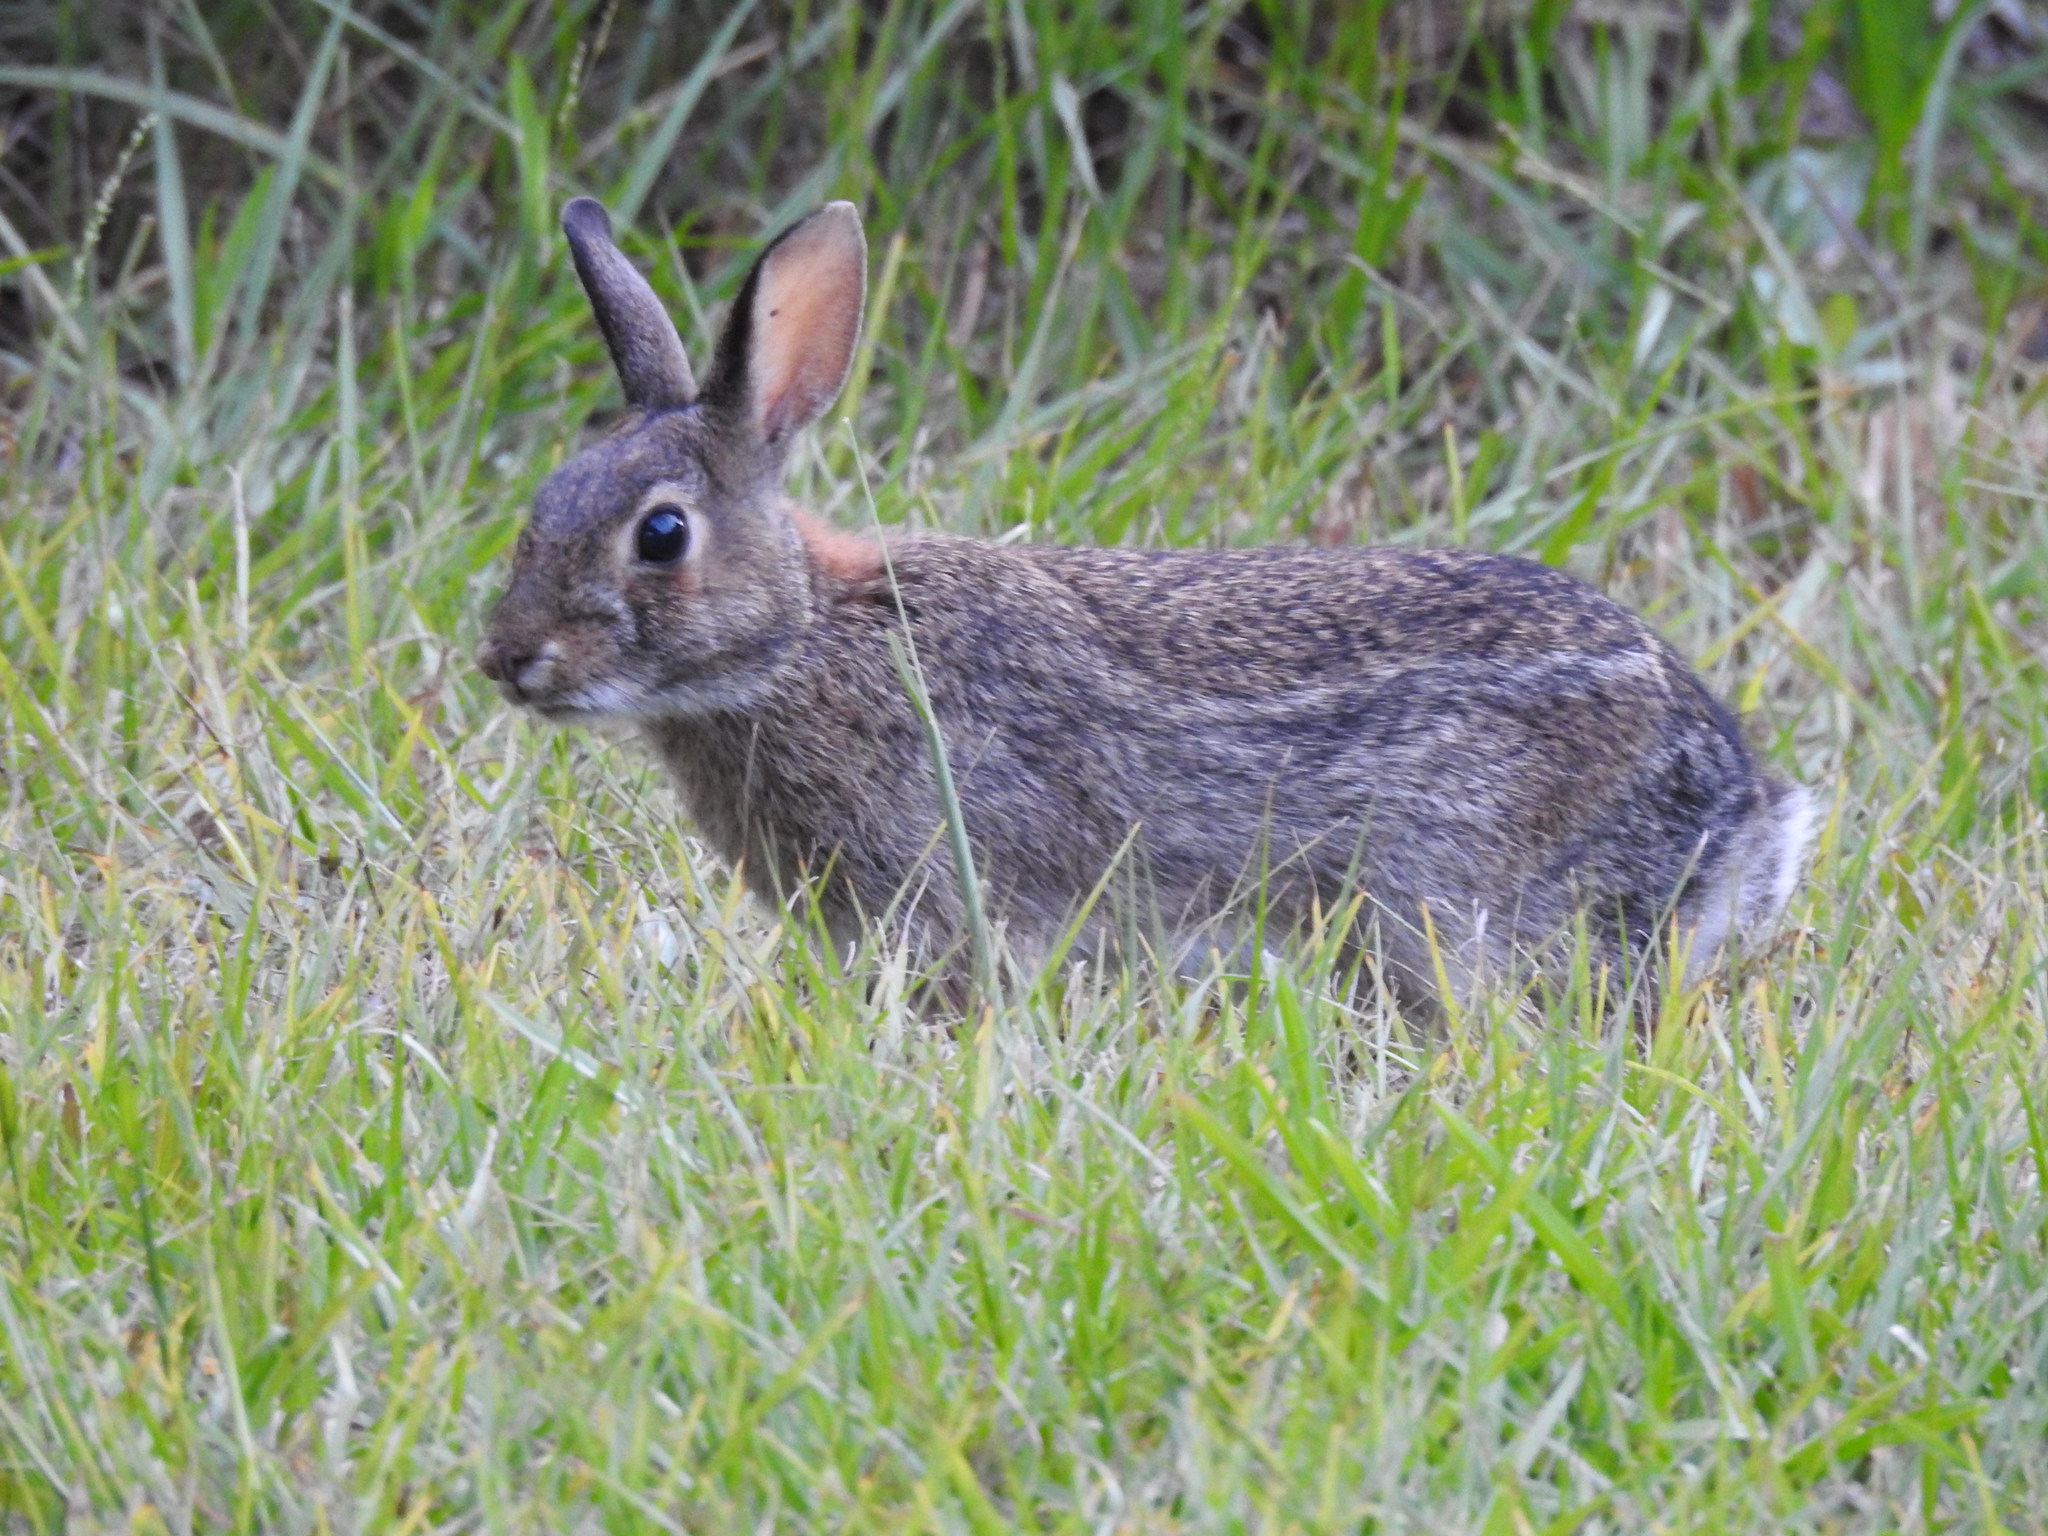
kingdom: Animalia
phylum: Chordata
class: Mammalia
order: Lagomorpha
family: Leporidae
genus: Sylvilagus
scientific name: Sylvilagus floridanus
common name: Eastern cottontail
